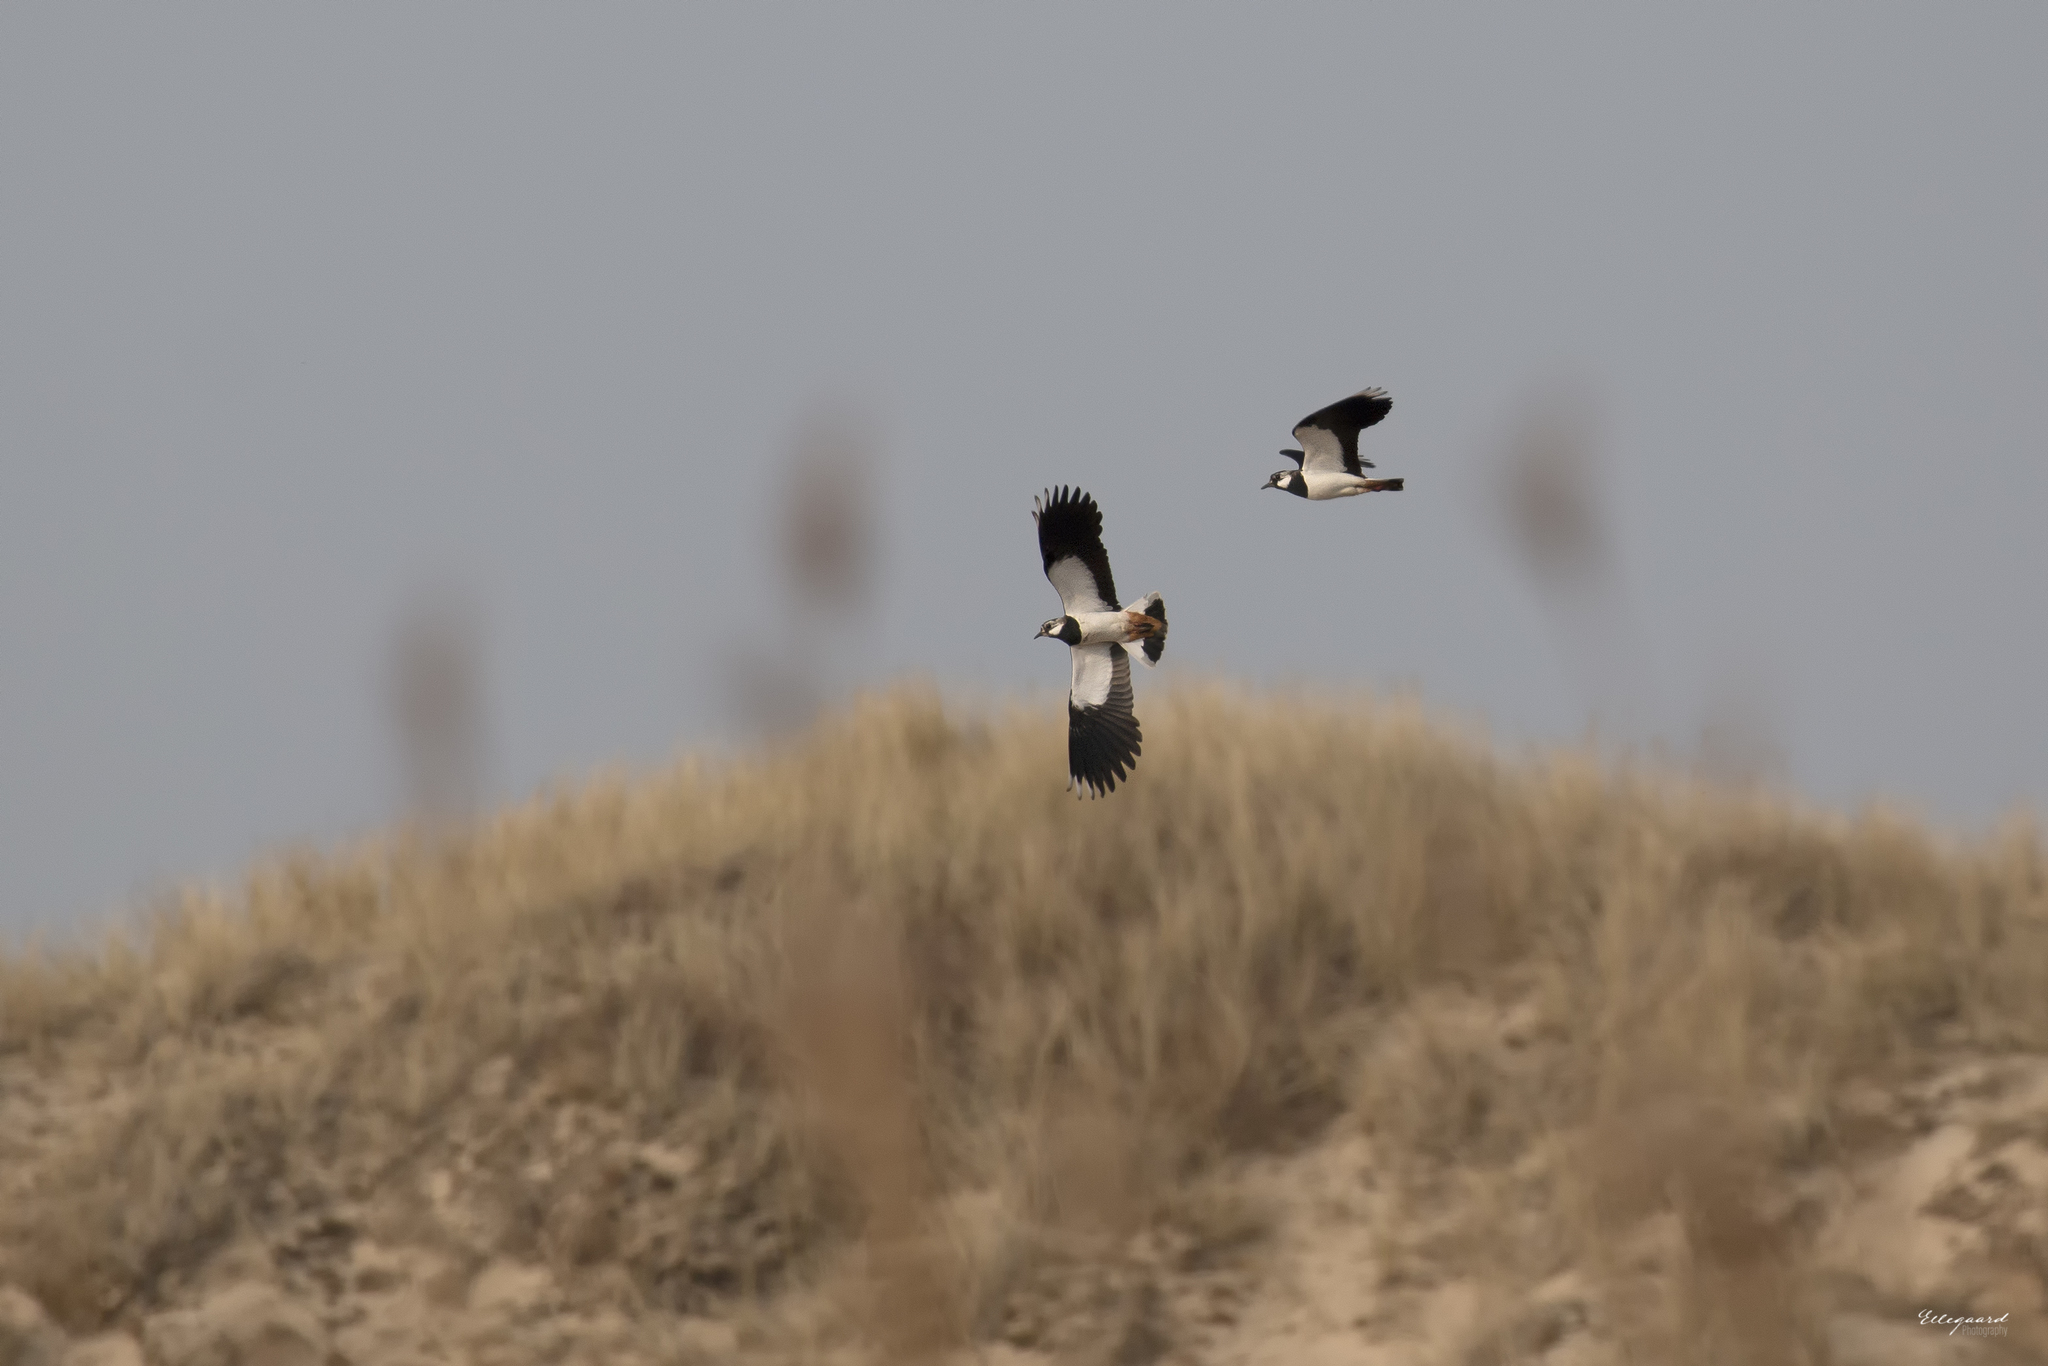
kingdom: Animalia
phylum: Chordata
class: Aves
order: Charadriiformes
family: Charadriidae
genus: Vanellus
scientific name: Vanellus vanellus
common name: Northern lapwing
